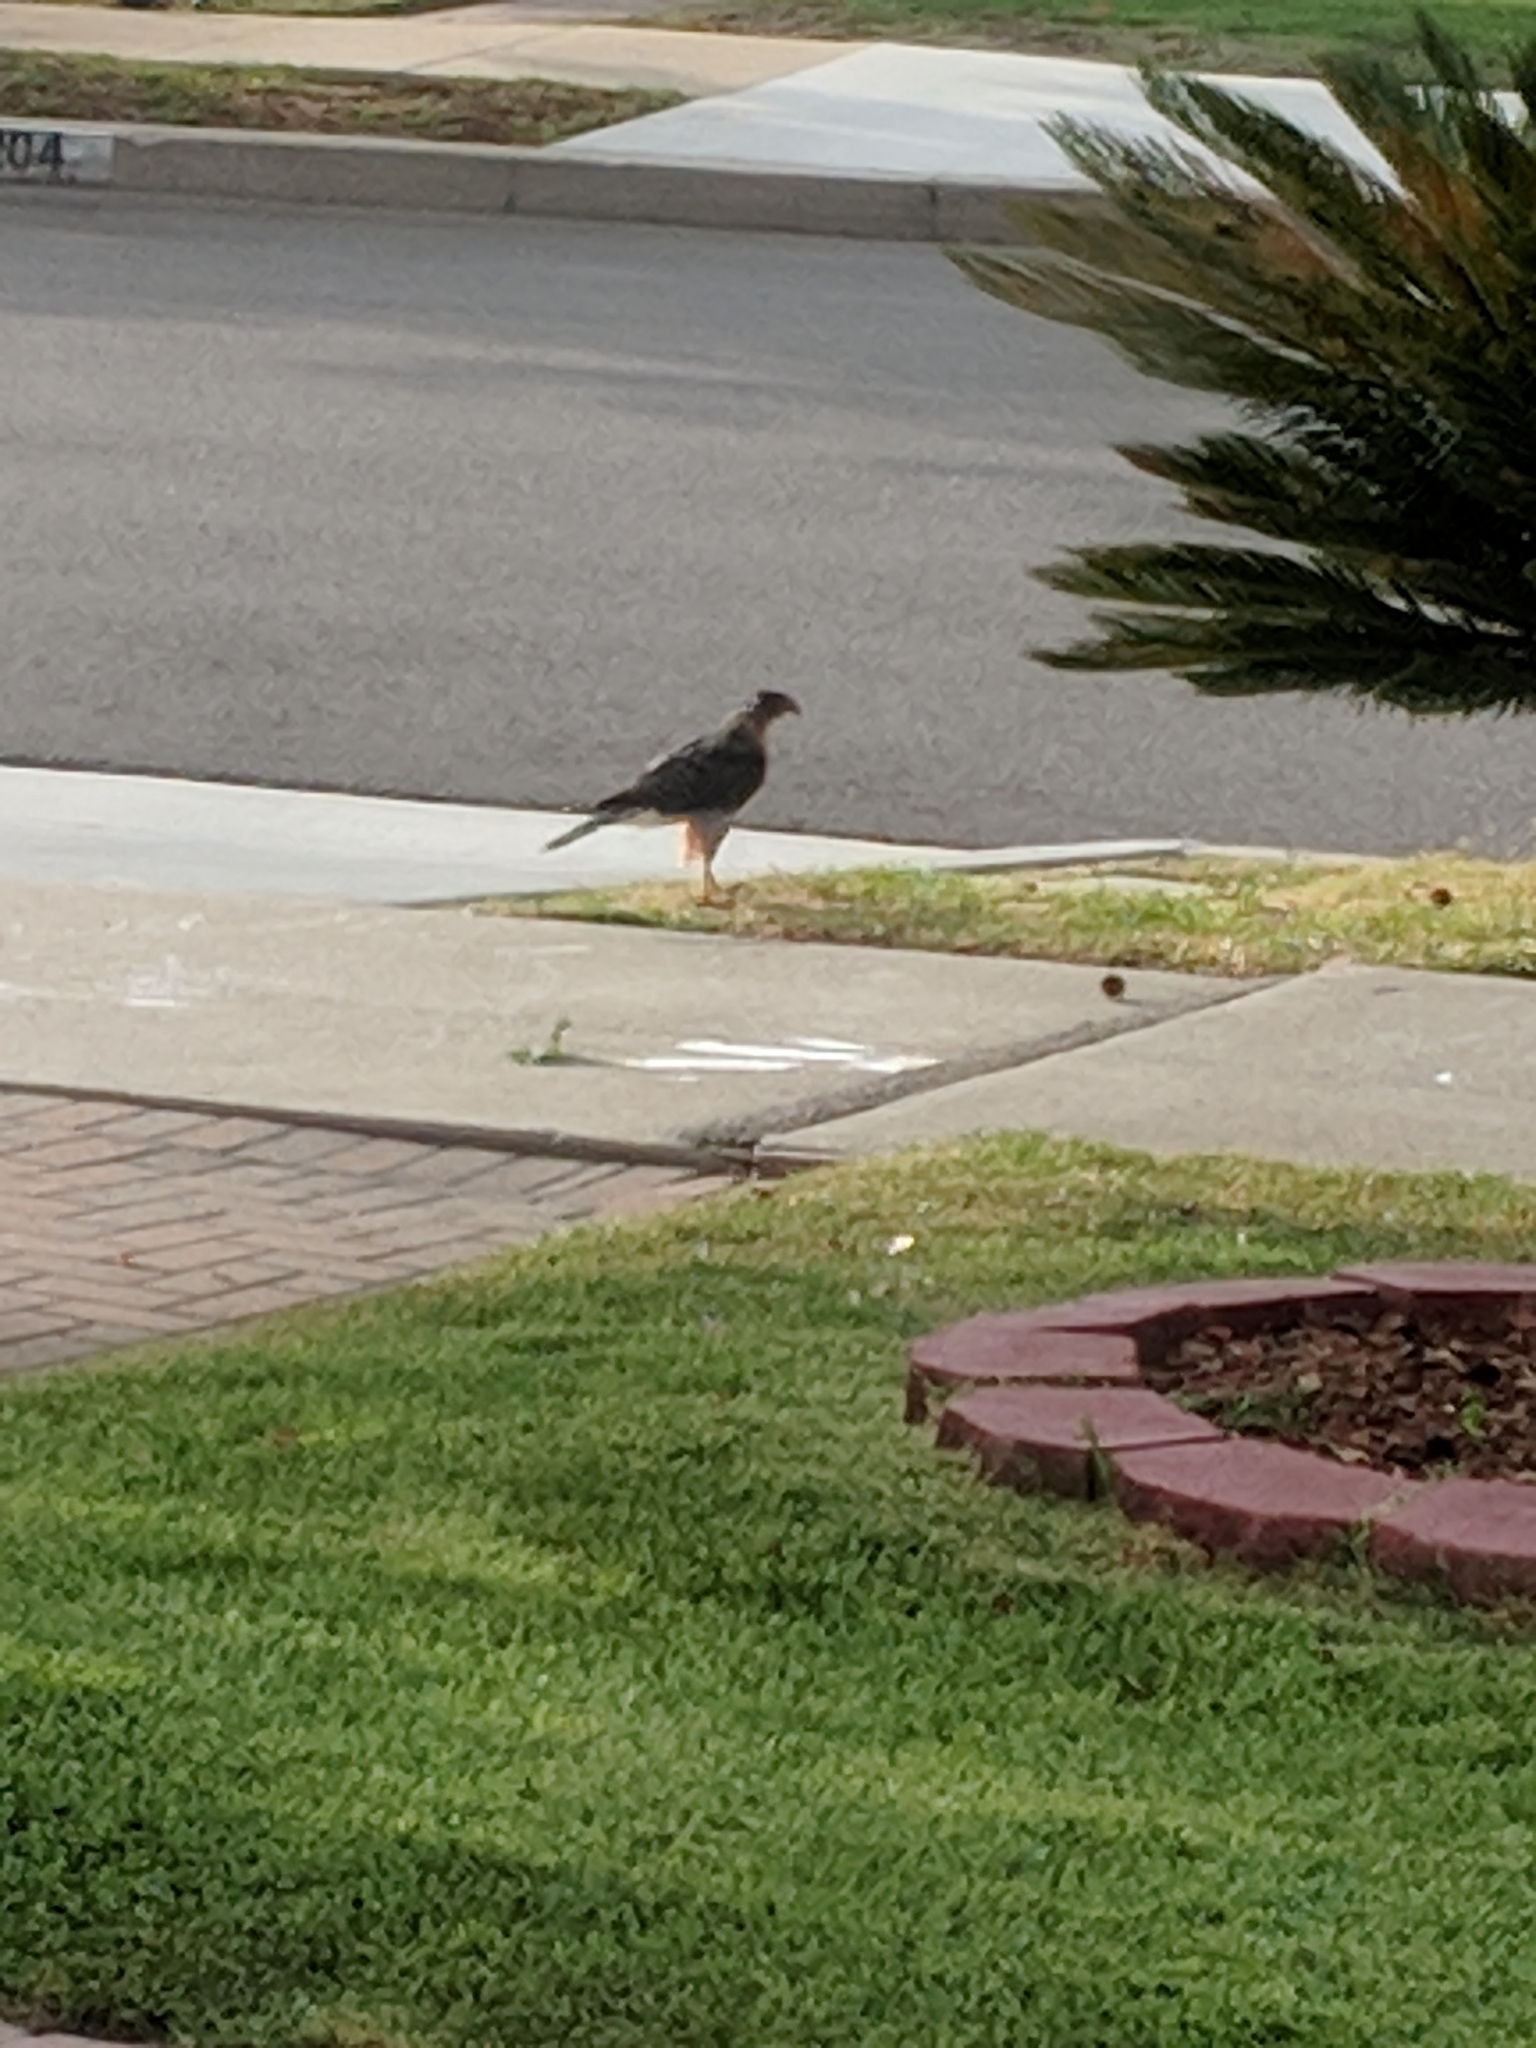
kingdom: Animalia
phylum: Chordata
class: Aves
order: Accipitriformes
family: Accipitridae
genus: Accipiter
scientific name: Accipiter cooperii
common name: Cooper's hawk
